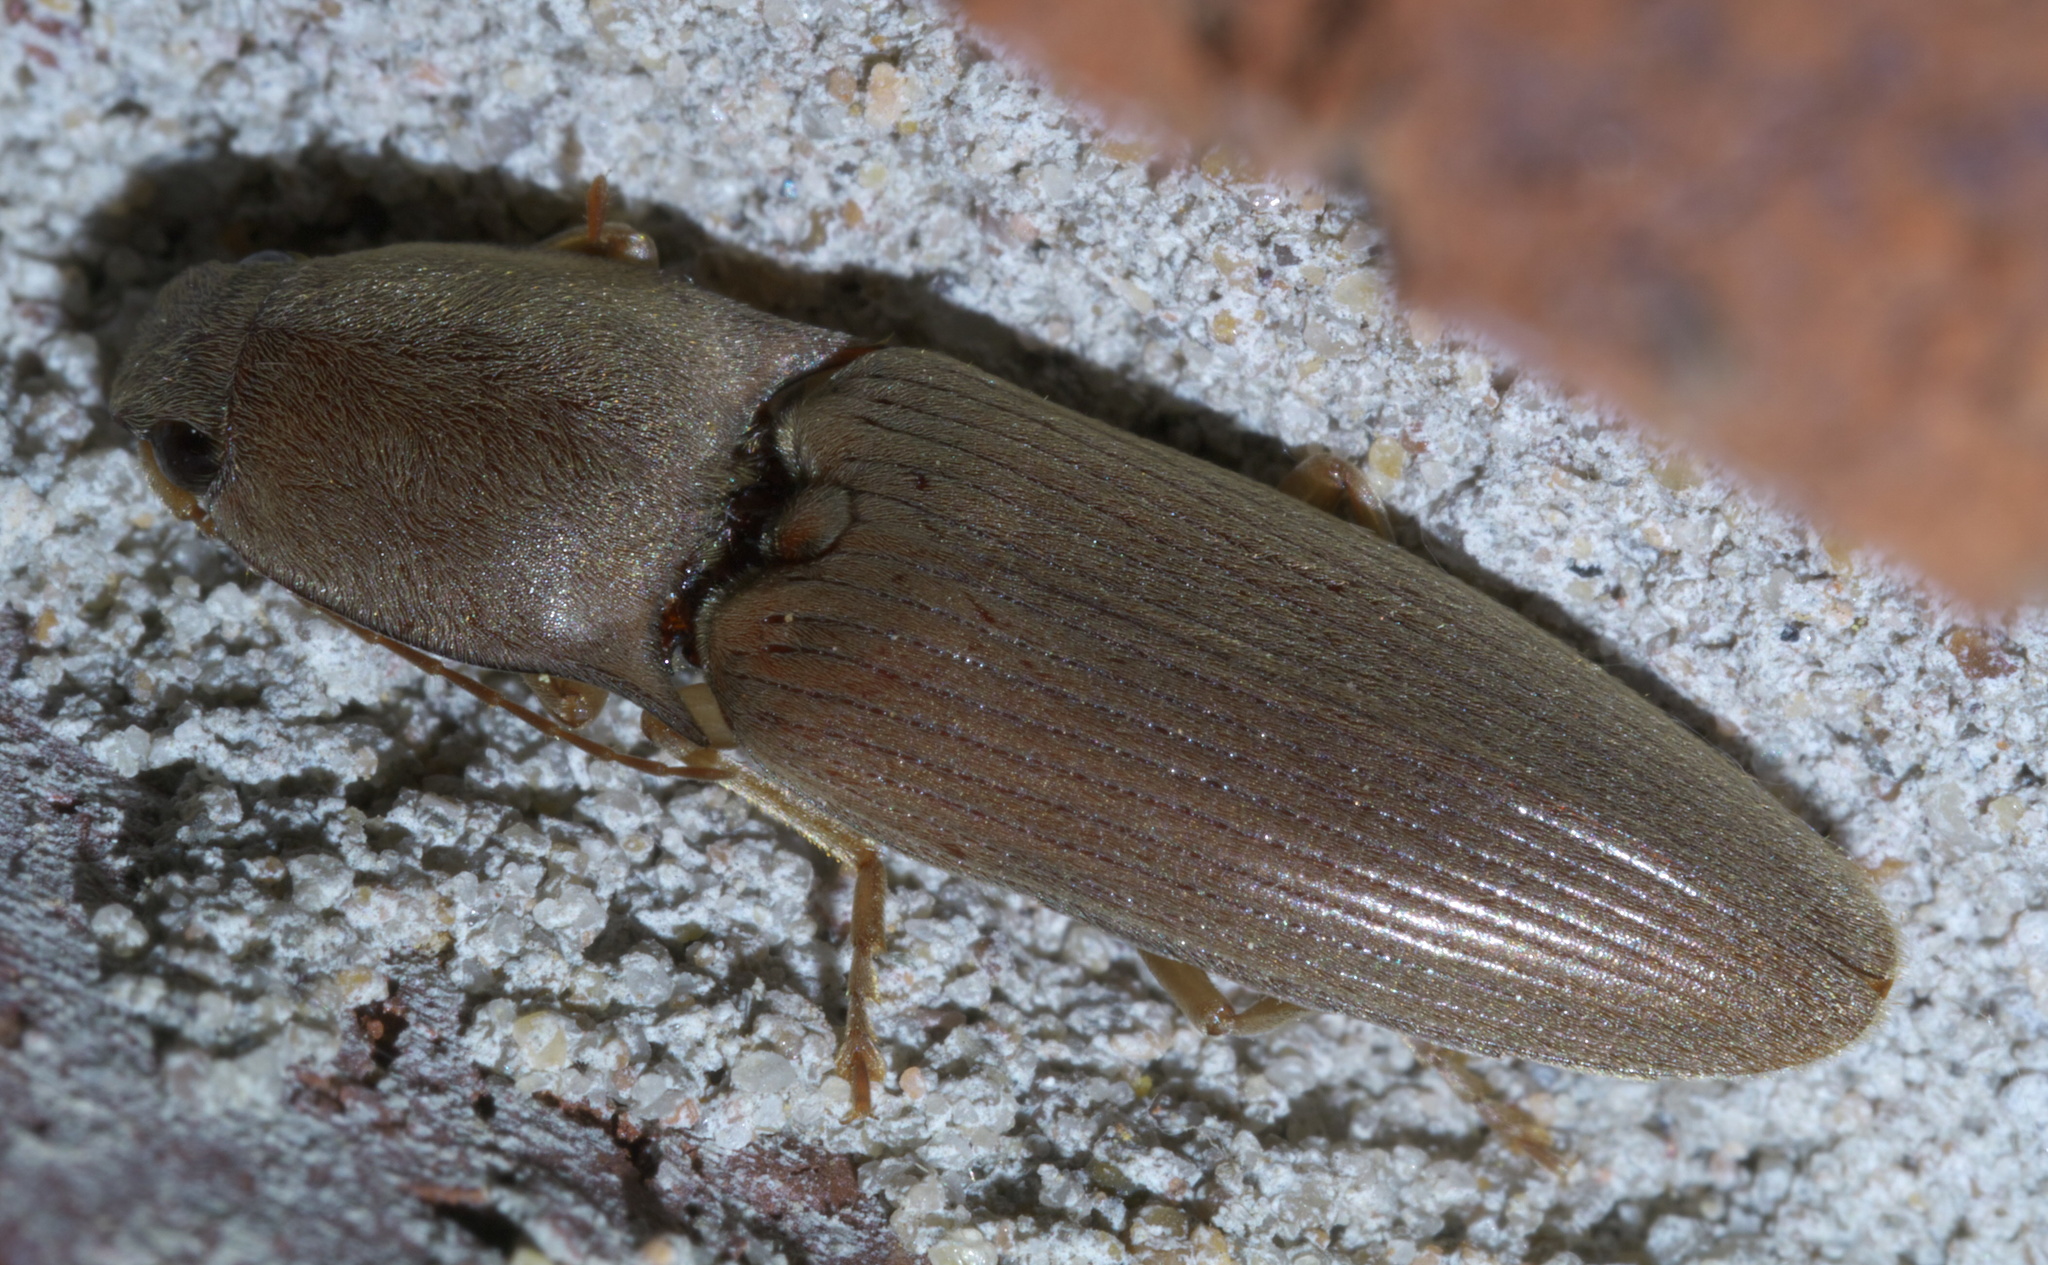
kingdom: Animalia
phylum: Arthropoda
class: Insecta
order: Coleoptera
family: Elateridae
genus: Monocrepidius
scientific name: Monocrepidius lividus
